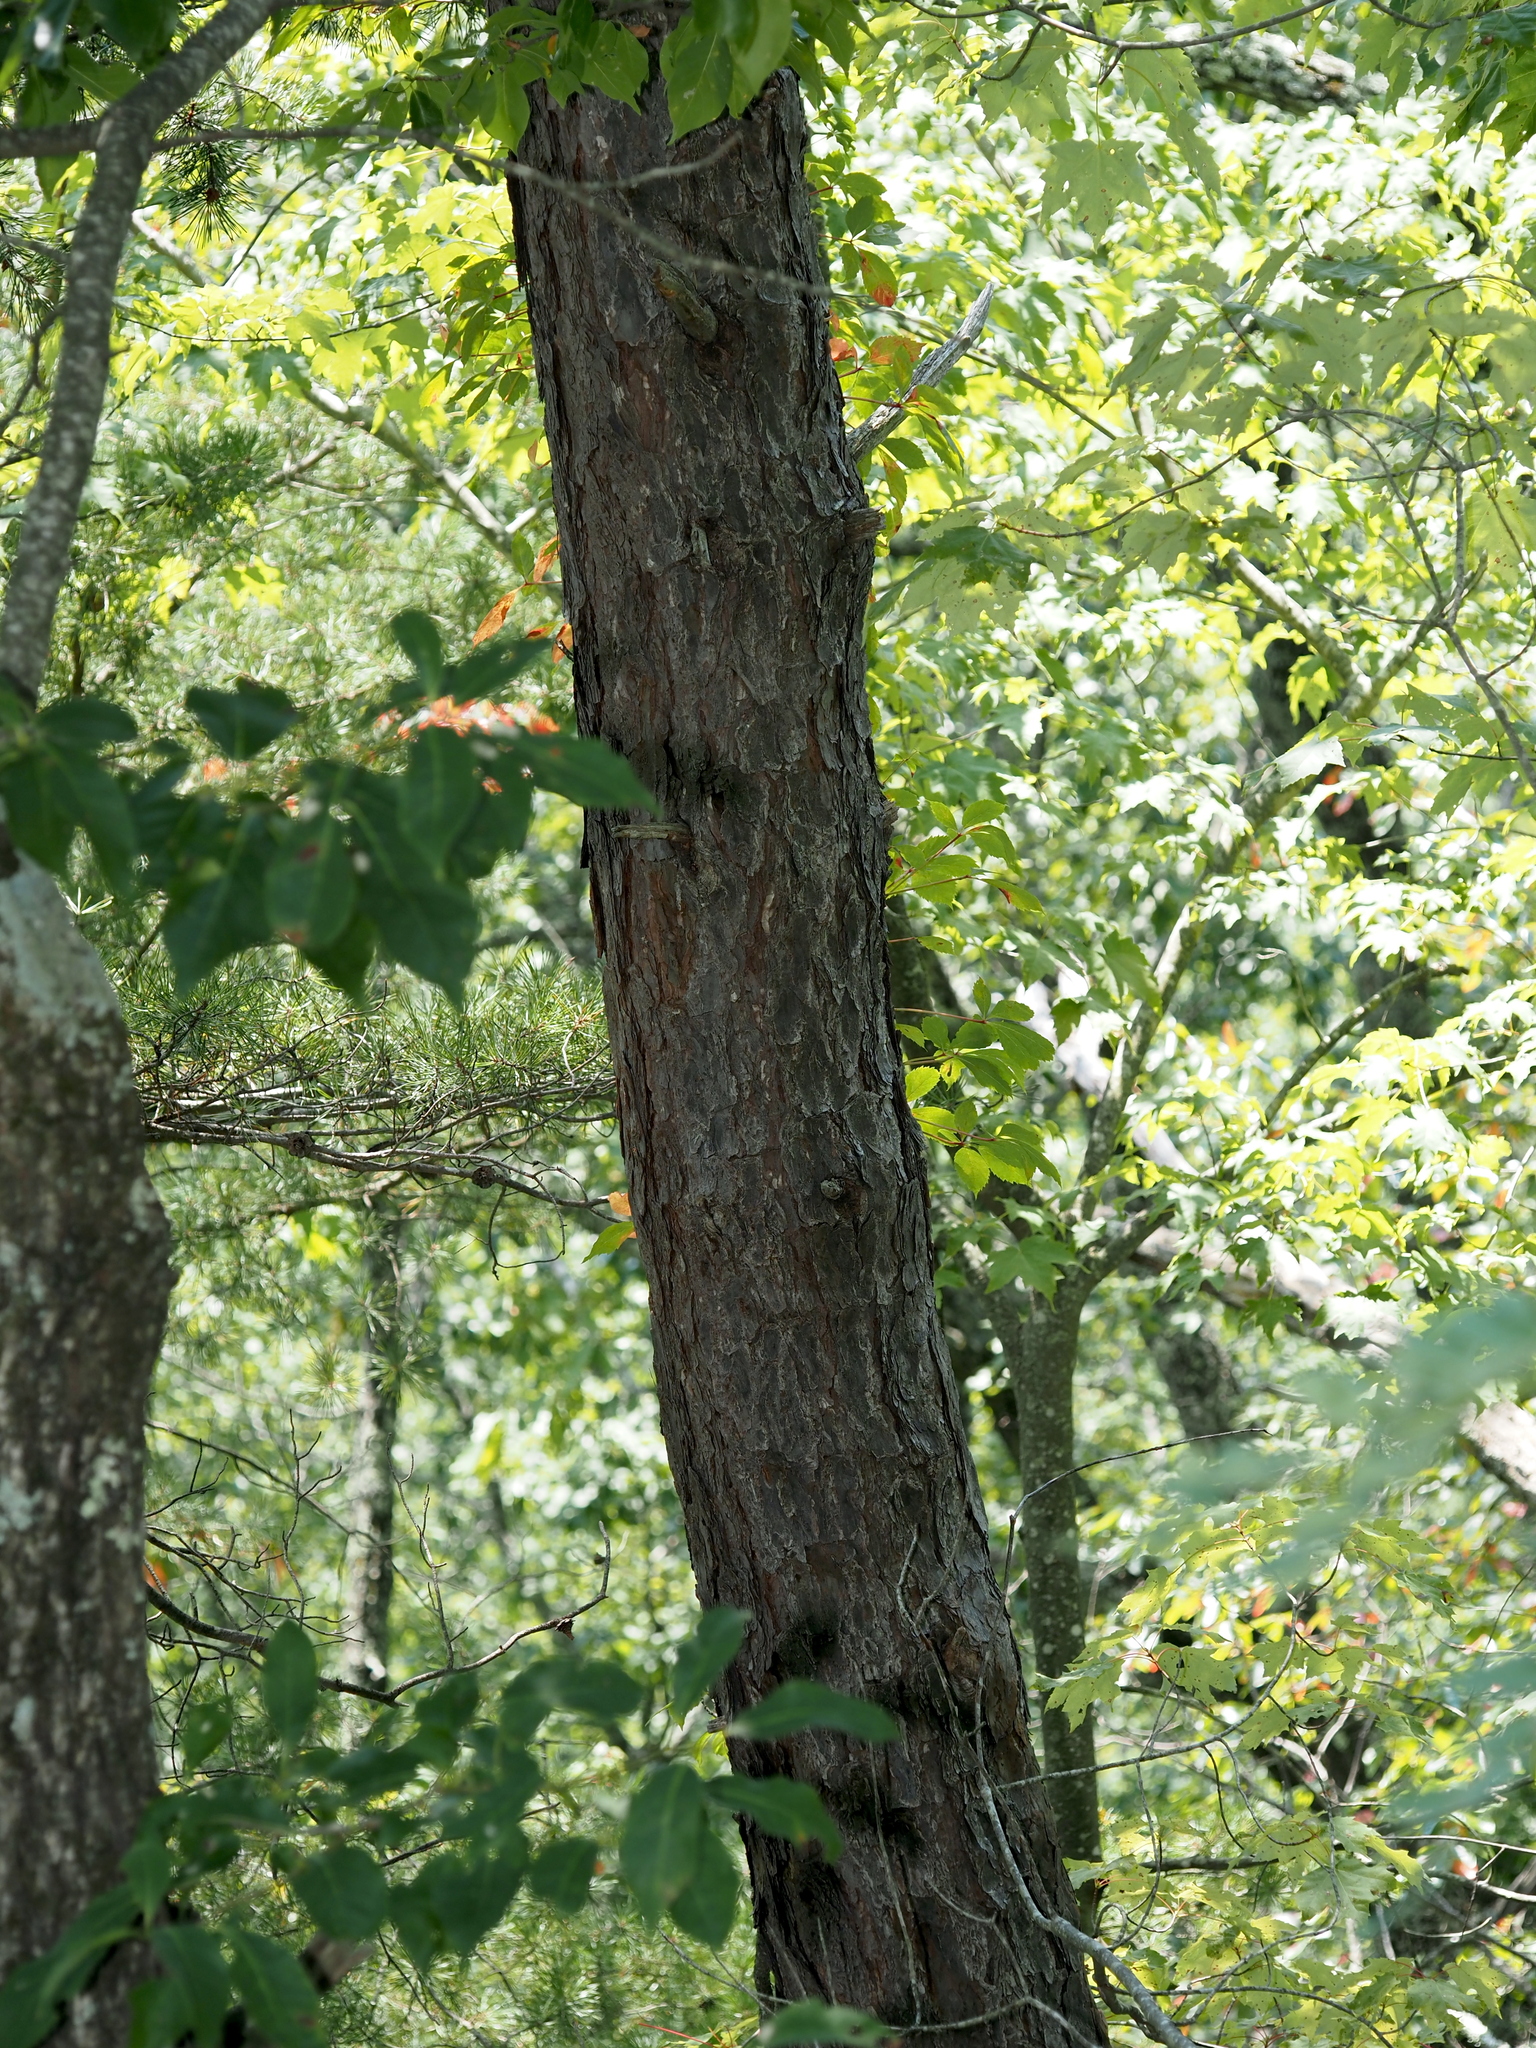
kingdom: Plantae
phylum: Tracheophyta
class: Pinopsida
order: Pinales
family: Pinaceae
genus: Pinus
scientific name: Pinus pungens
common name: Hickory pine
